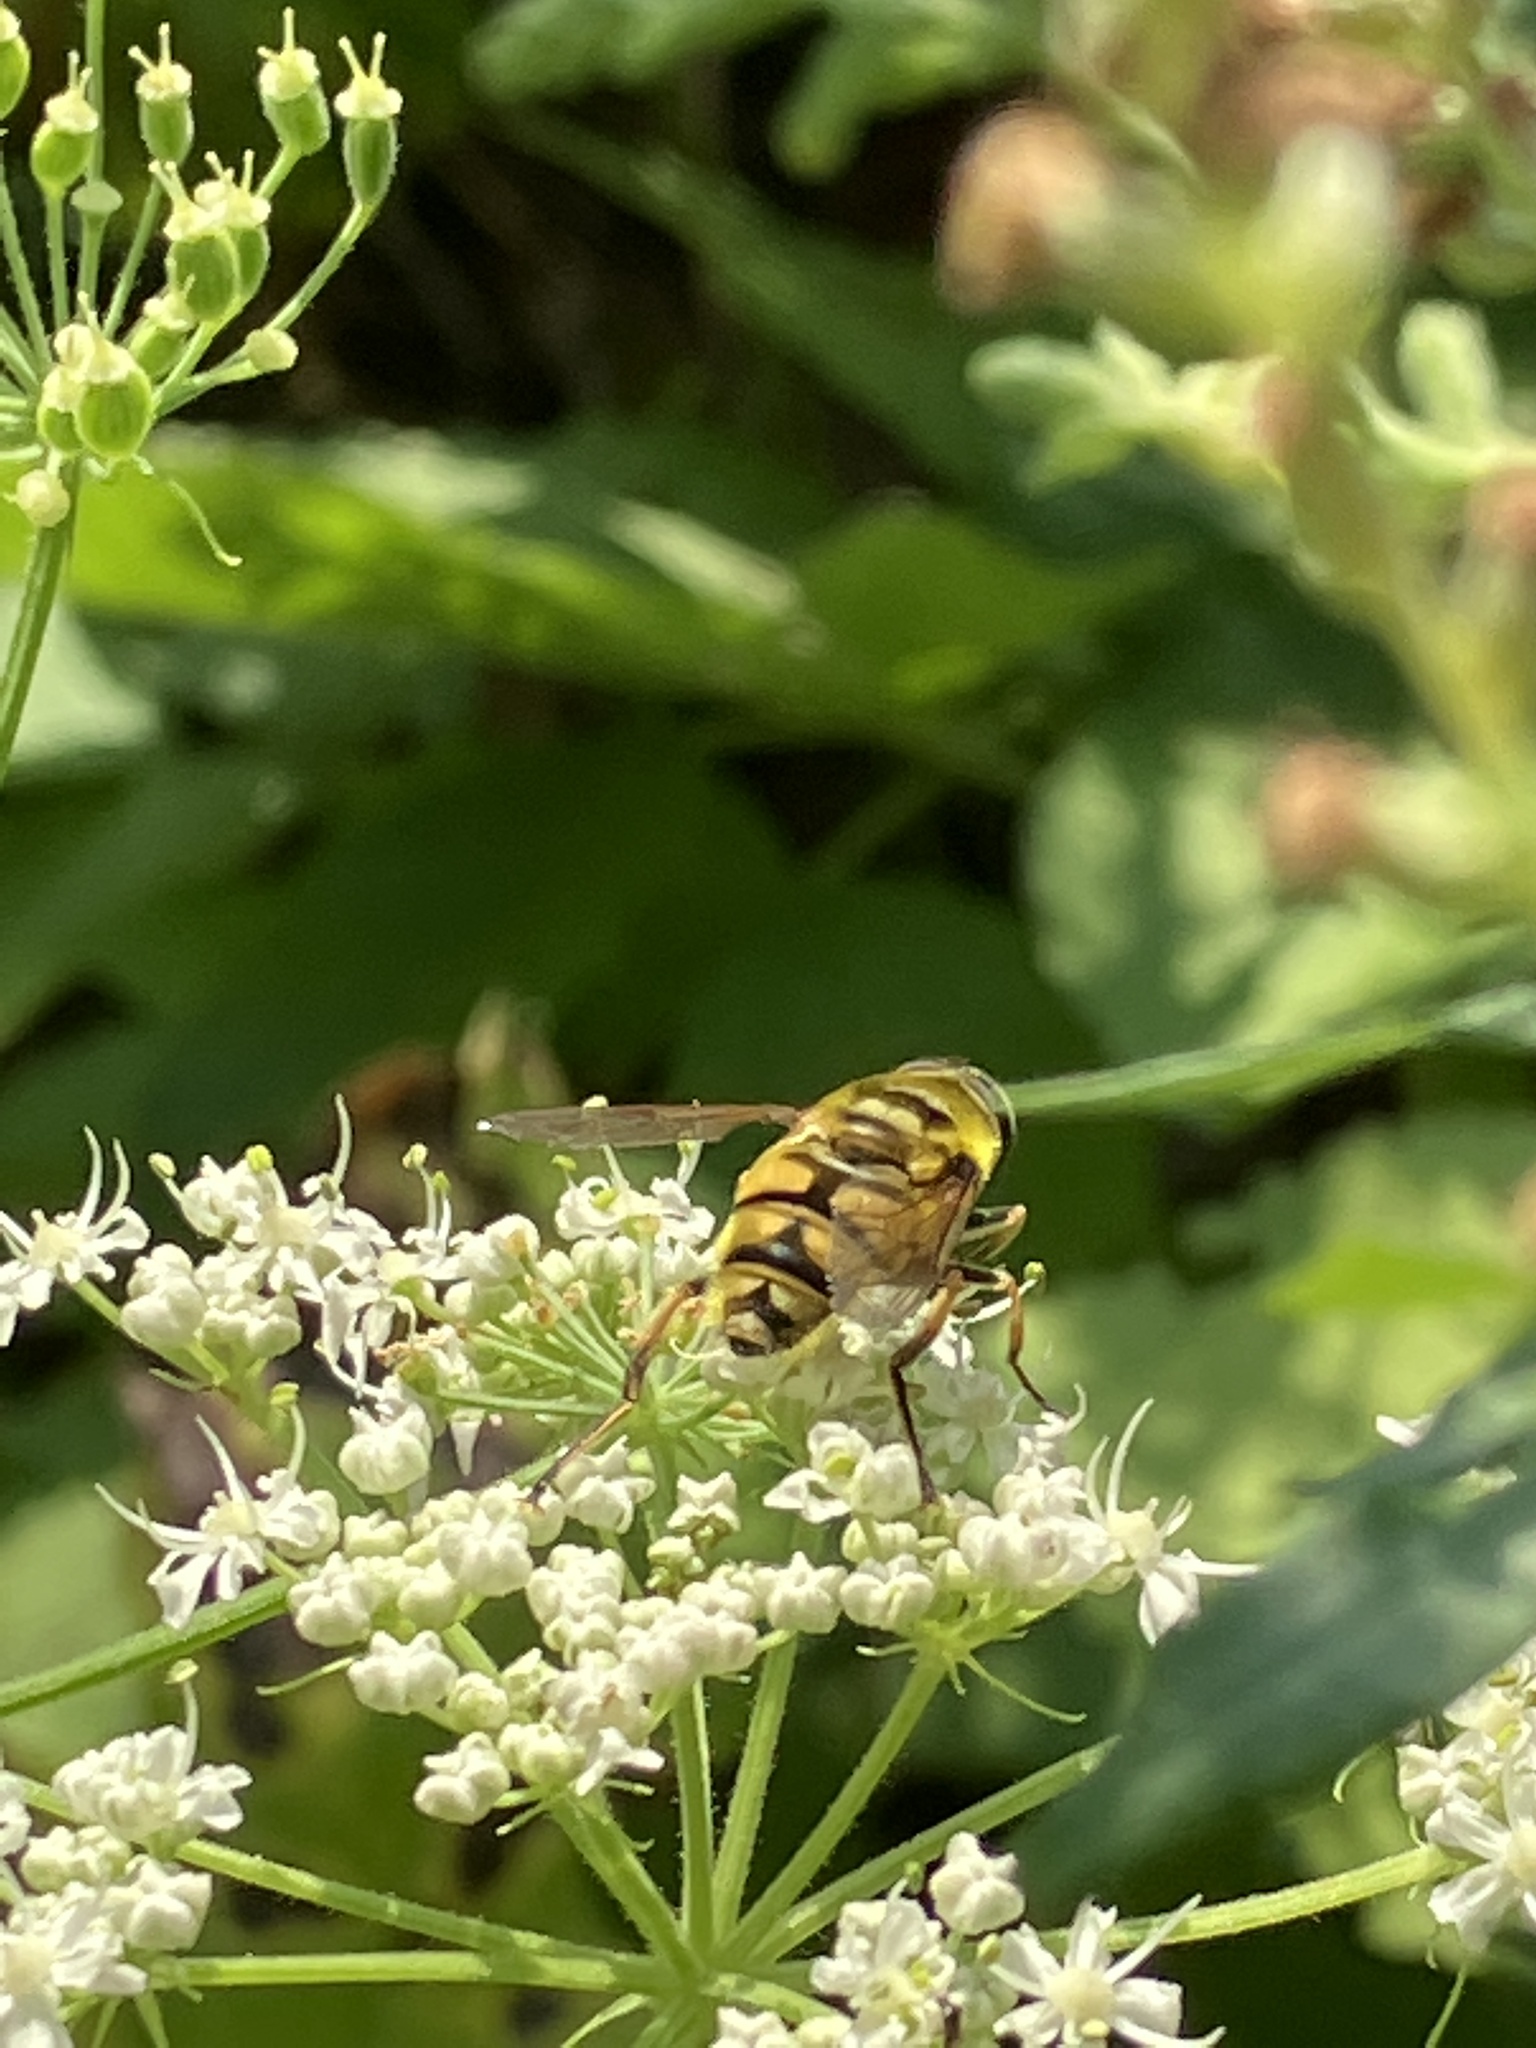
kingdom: Animalia
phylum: Arthropoda
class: Insecta
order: Diptera
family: Syrphidae
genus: Myathropa
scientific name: Myathropa florea
